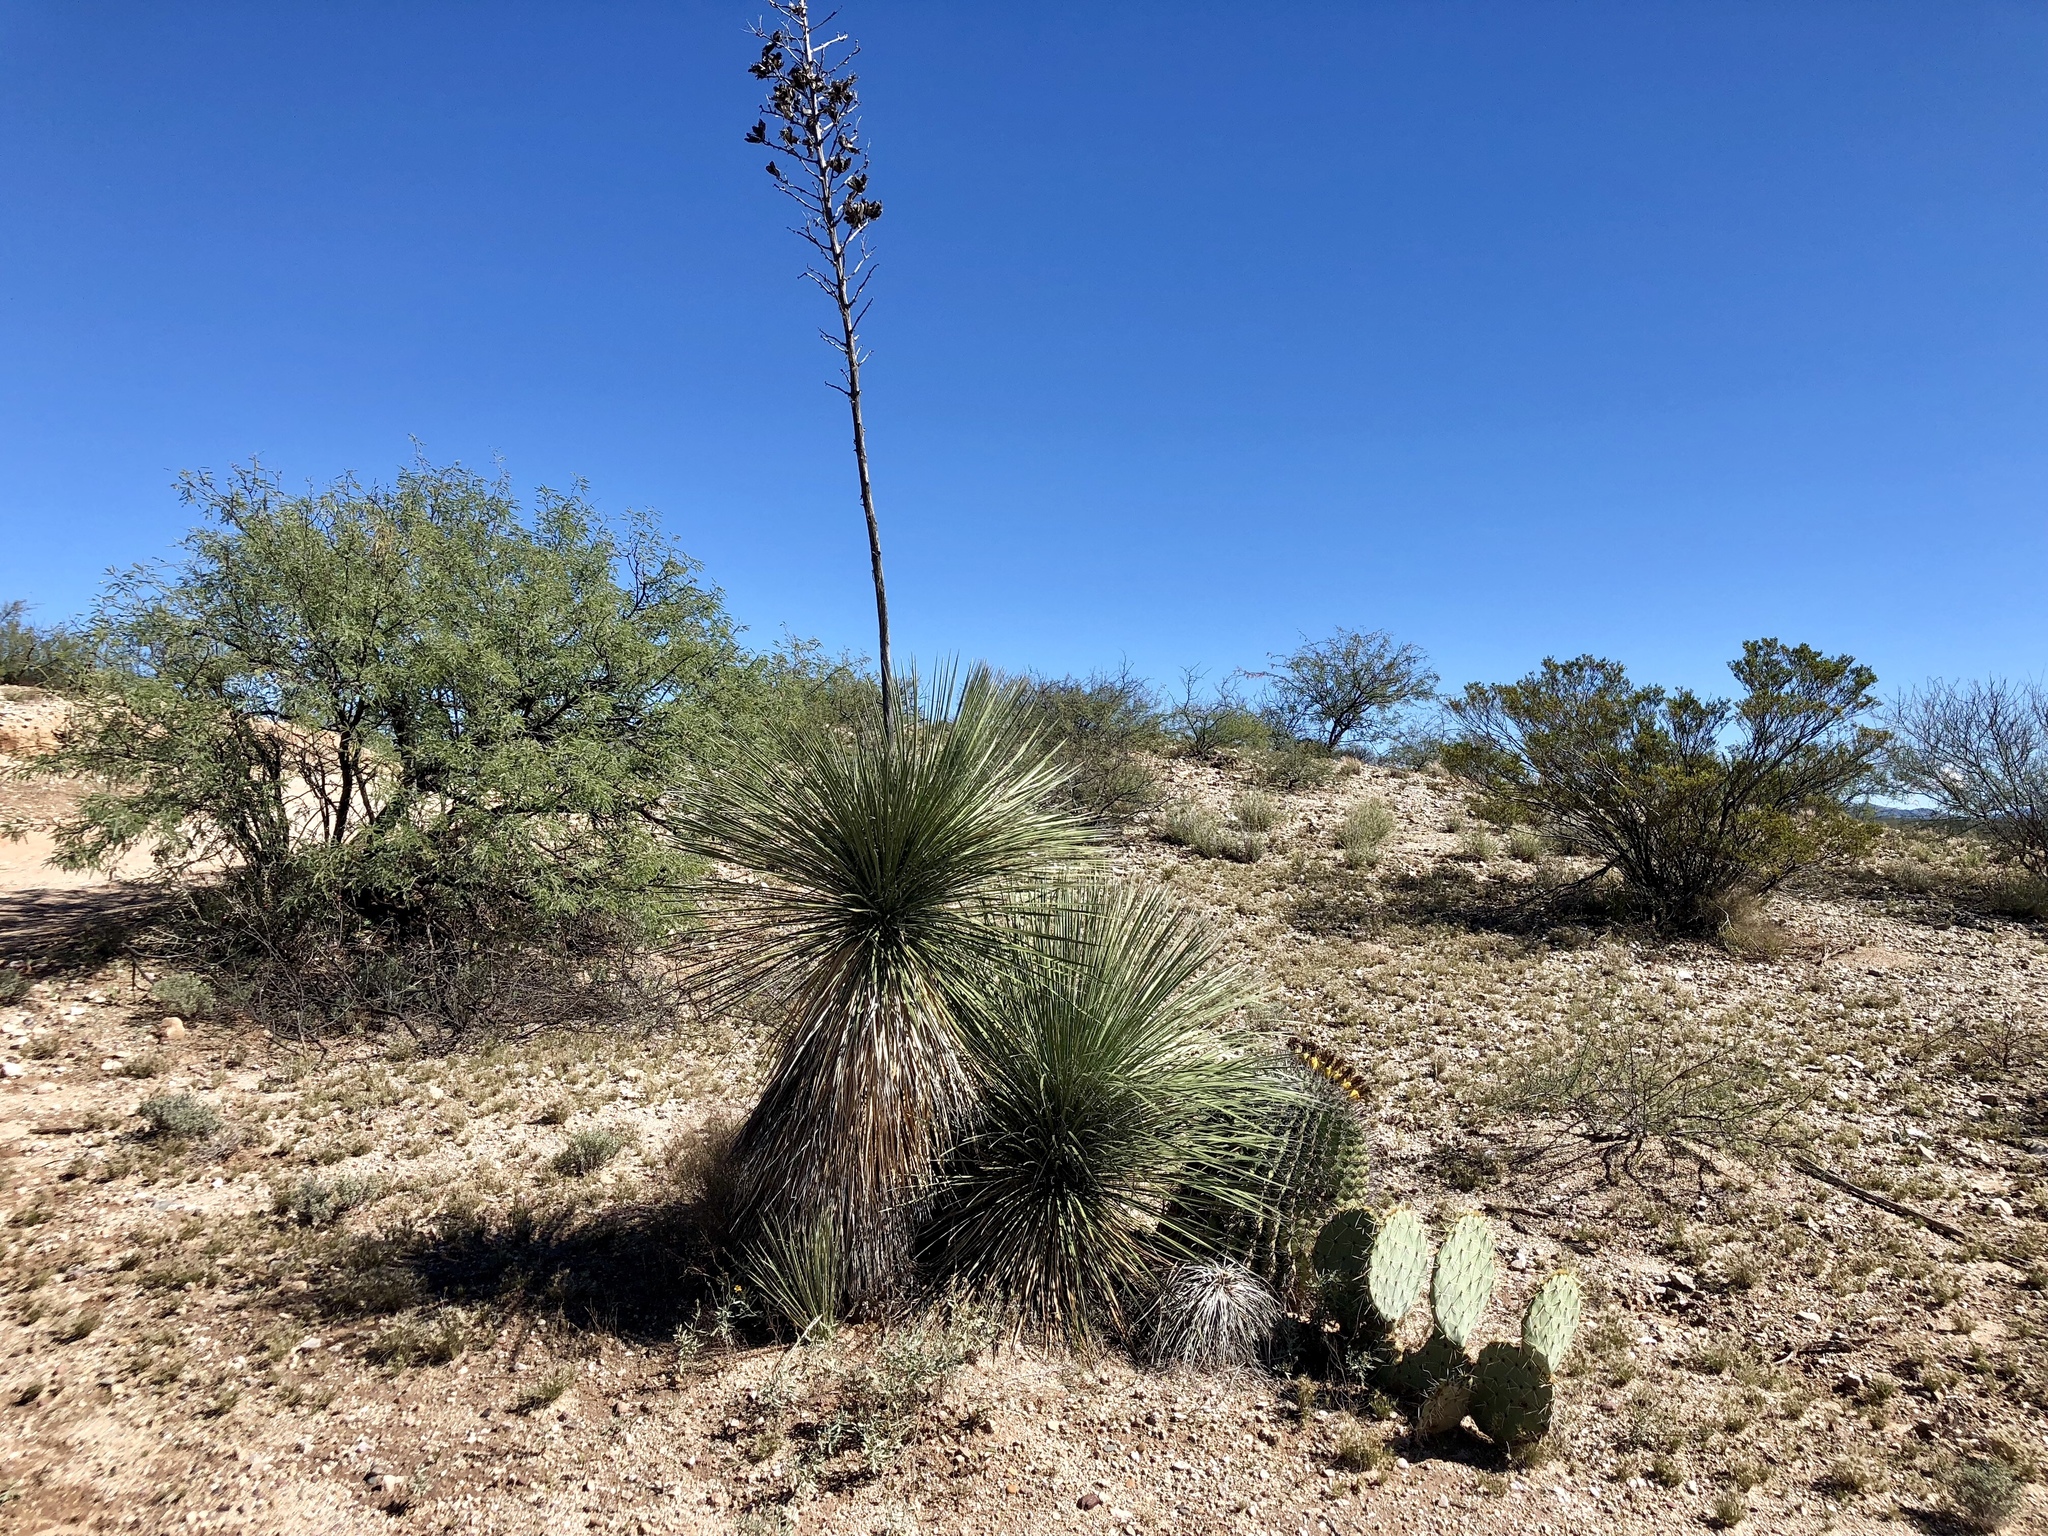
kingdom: Plantae
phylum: Tracheophyta
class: Magnoliopsida
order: Caryophyllales
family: Cactaceae
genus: Ferocactus
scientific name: Ferocactus wislizeni
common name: Candy barrel cactus
